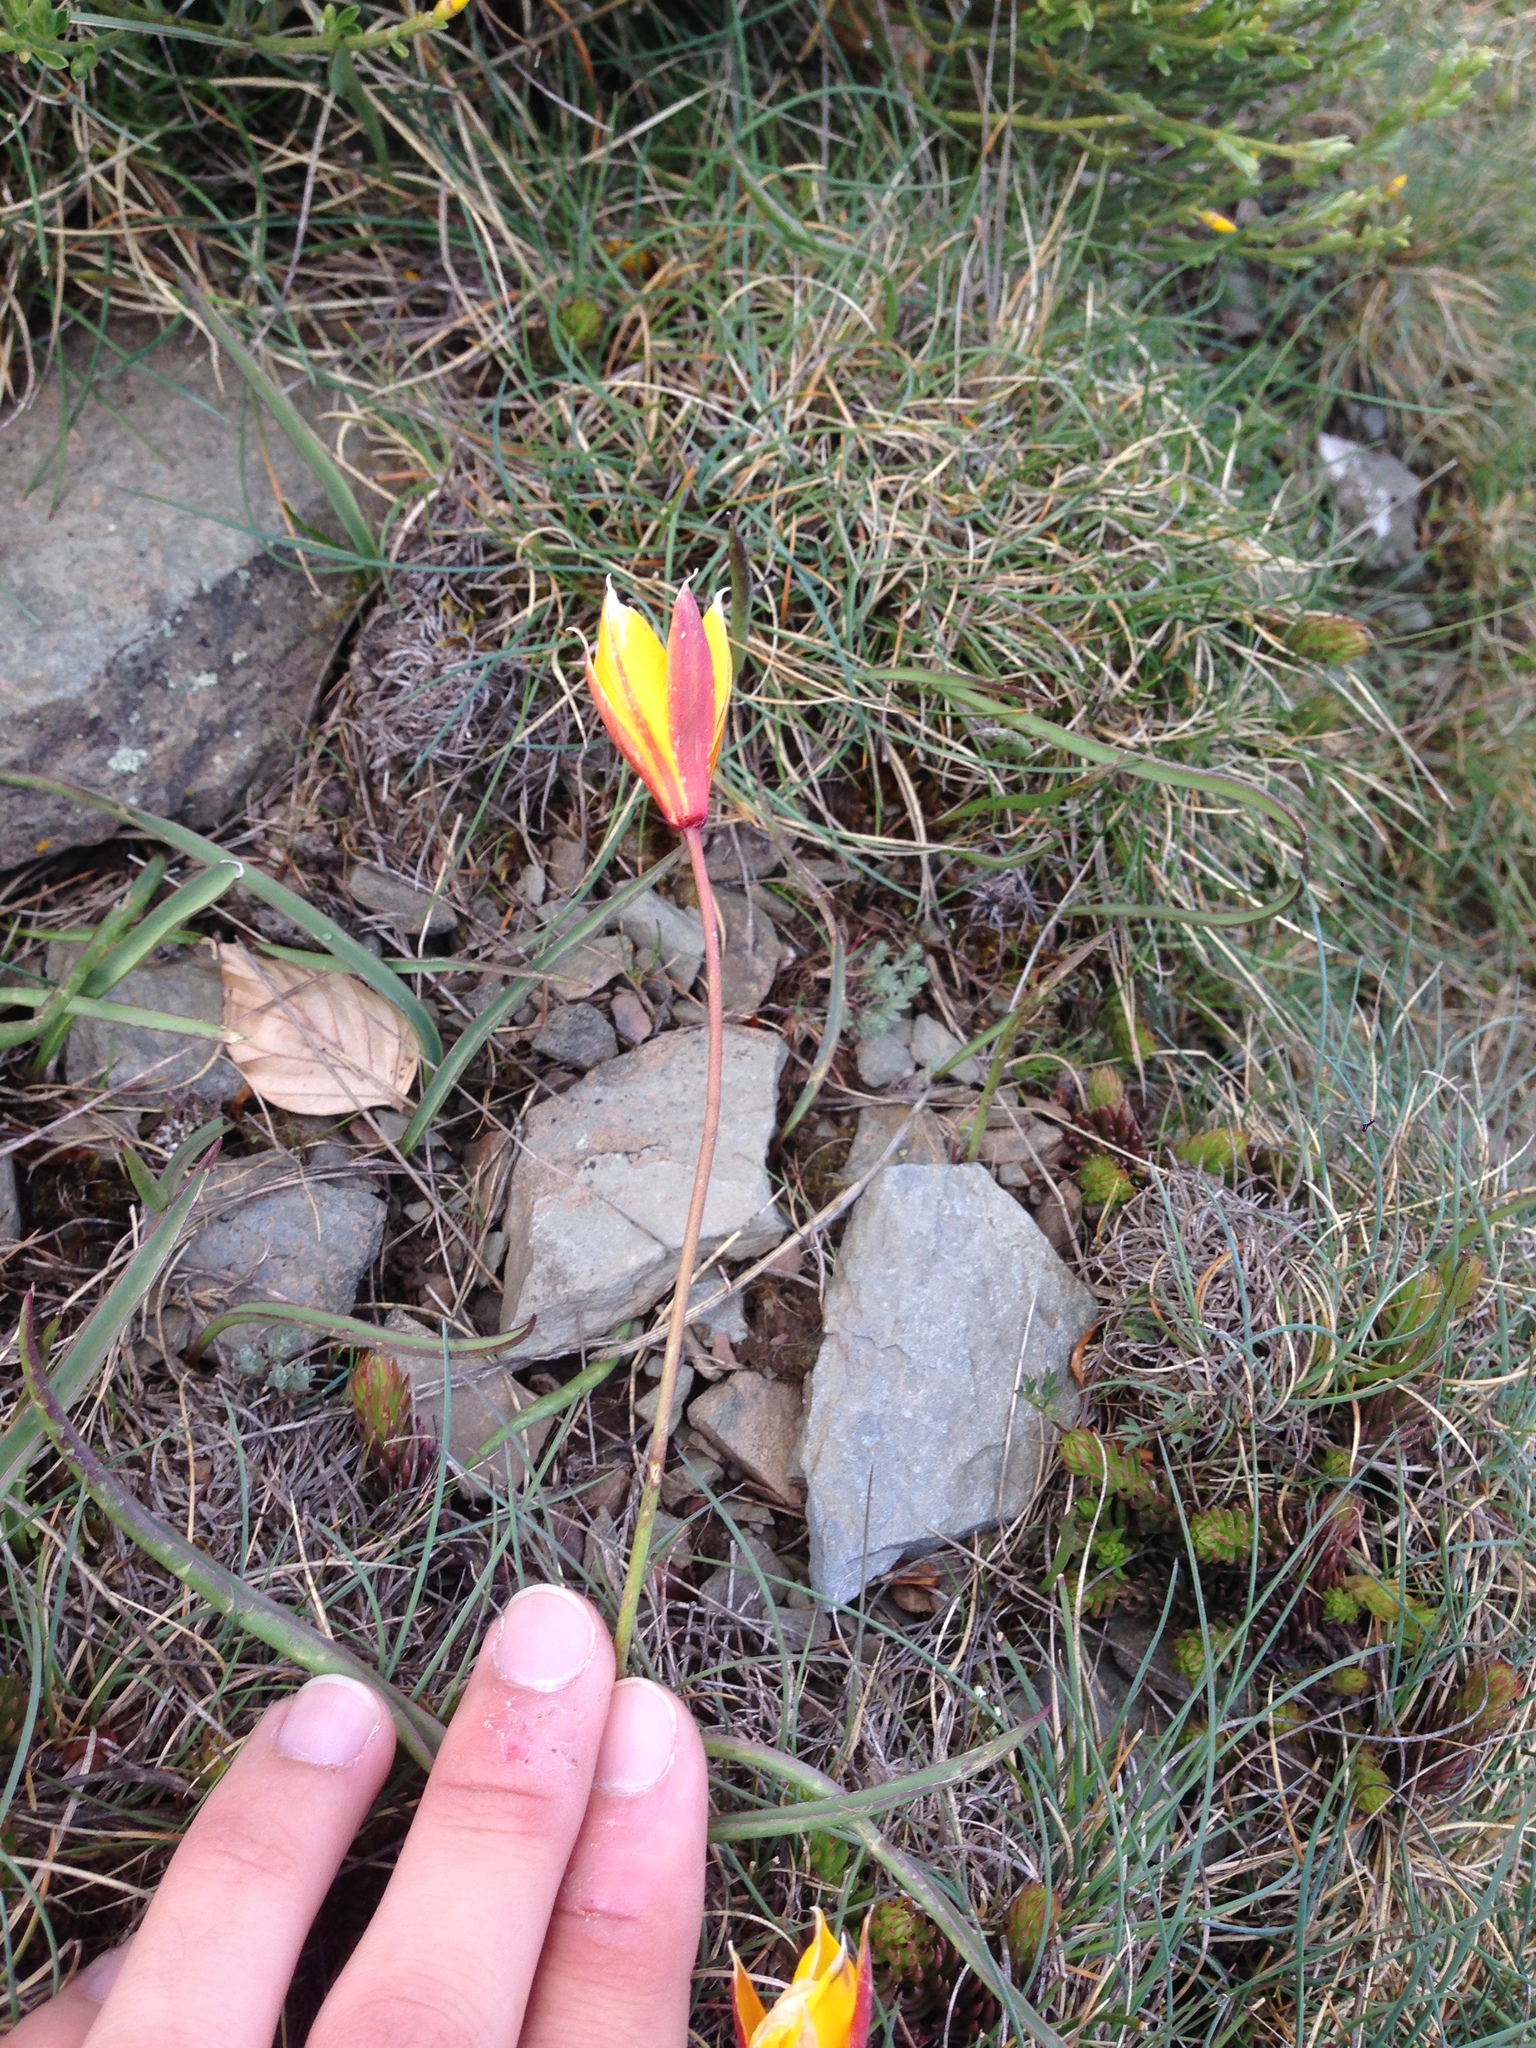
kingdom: Plantae
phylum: Tracheophyta
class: Liliopsida
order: Liliales
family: Liliaceae
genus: Tulipa
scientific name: Tulipa sylvestris
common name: Wild tulip
